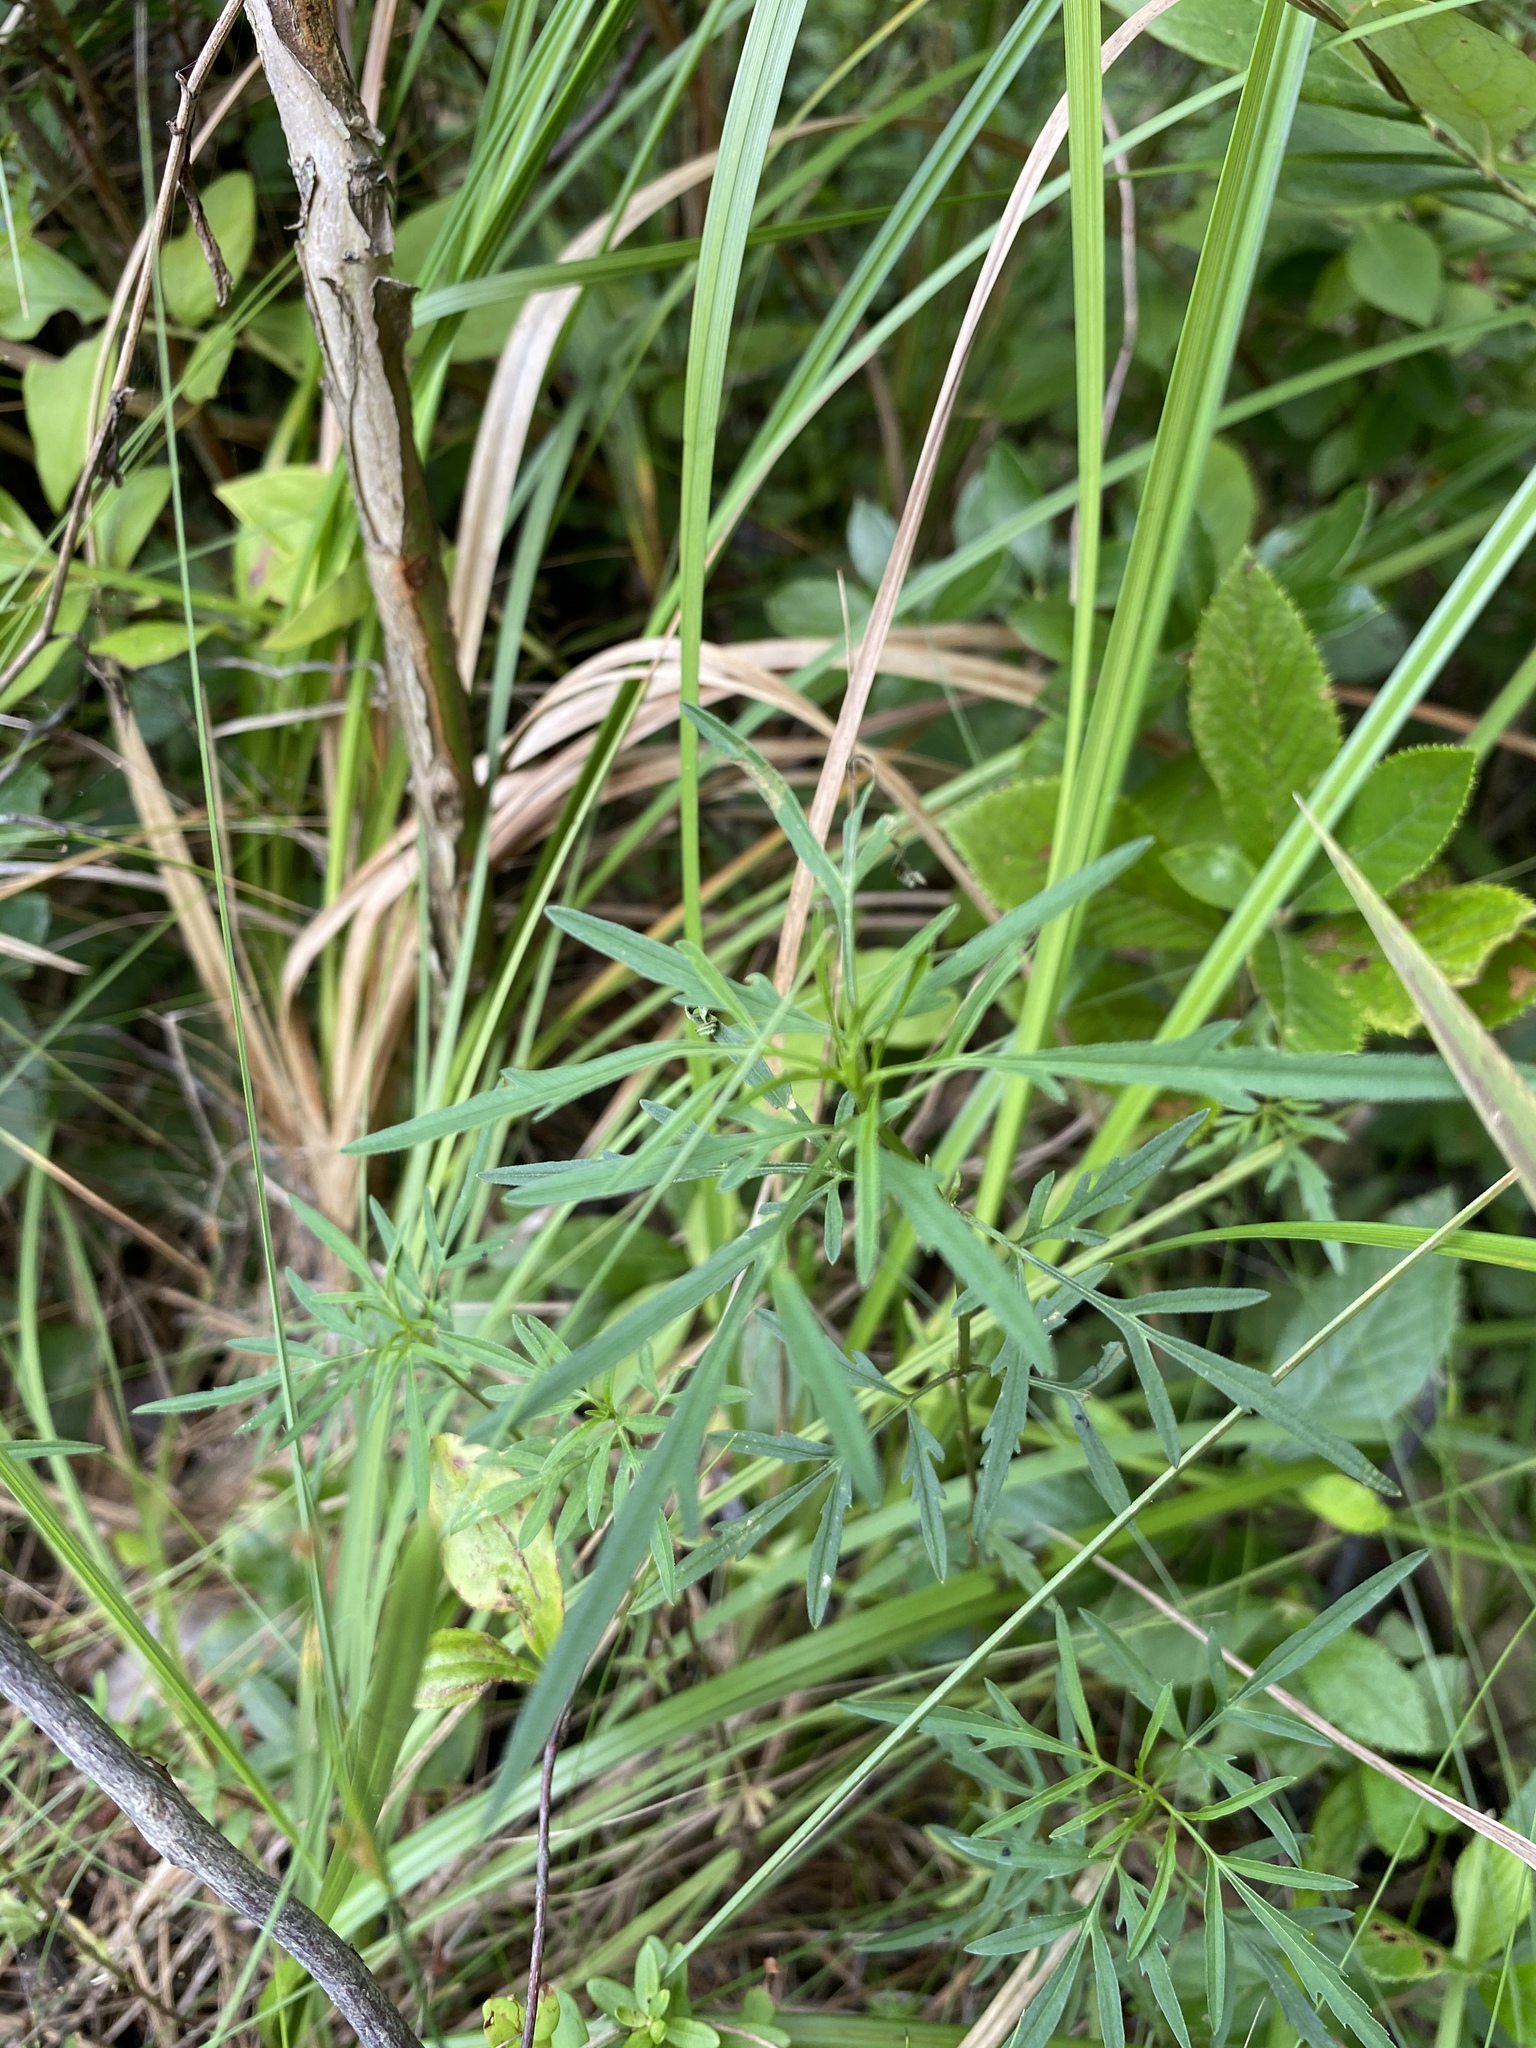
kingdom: Plantae
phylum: Tracheophyta
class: Magnoliopsida
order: Asterales
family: Asteraceae
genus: Bidens
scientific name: Bidens trichosperma
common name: Crowned beggarticks
